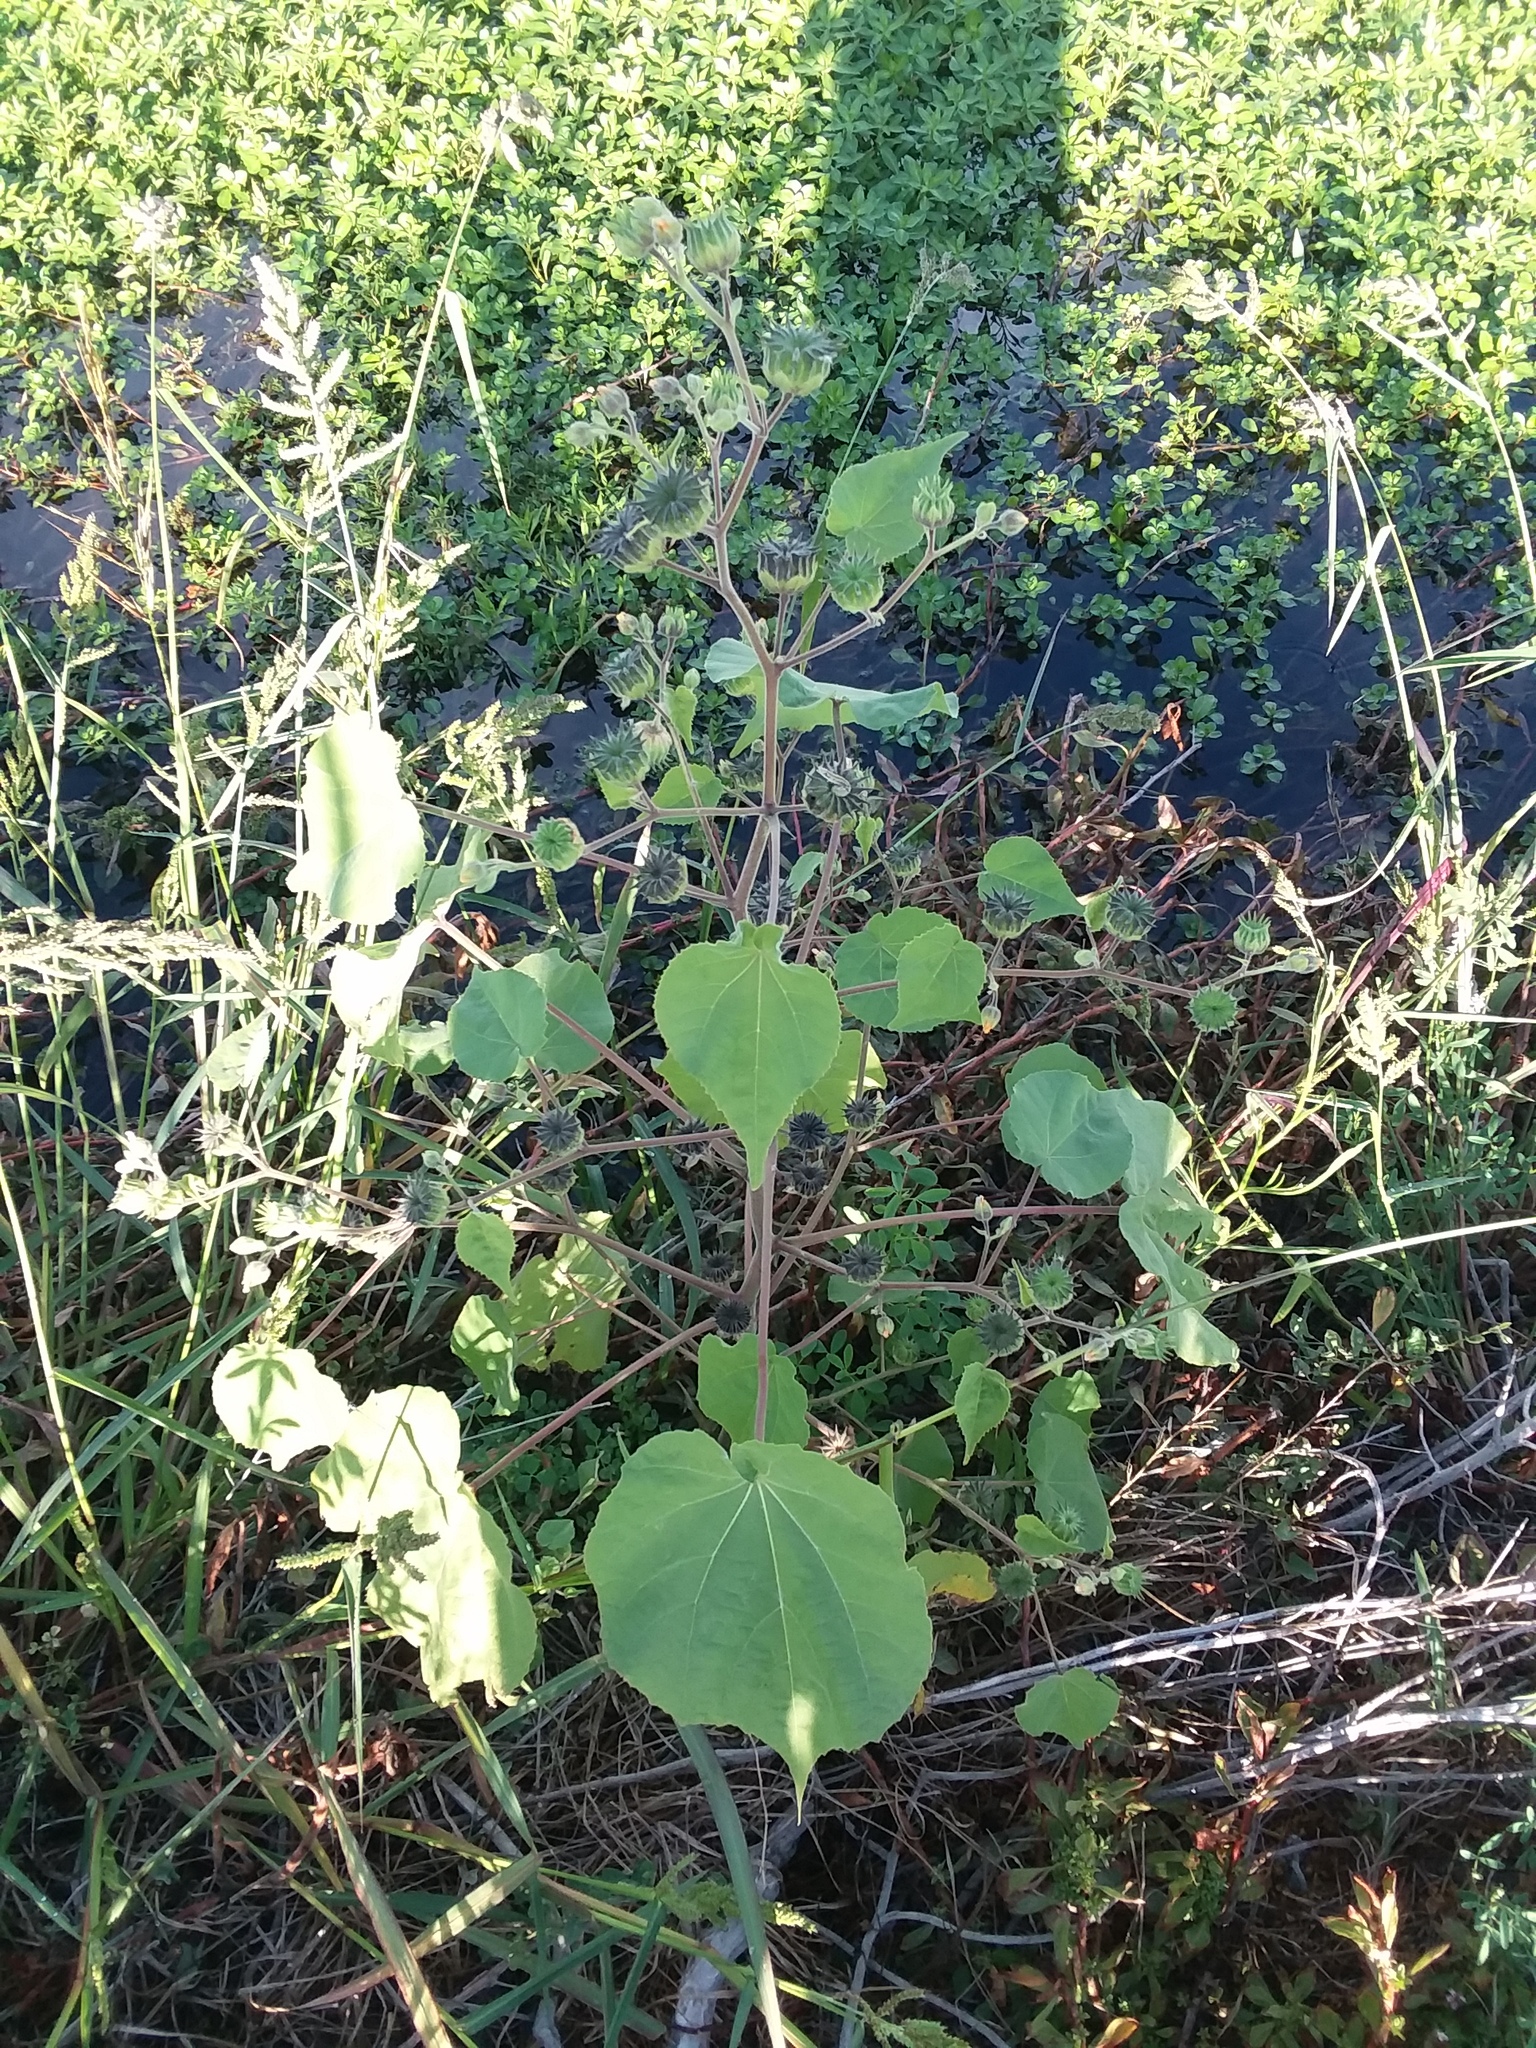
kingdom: Plantae
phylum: Tracheophyta
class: Magnoliopsida
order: Malvales
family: Malvaceae
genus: Abutilon
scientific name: Abutilon theophrasti
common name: Velvetleaf
